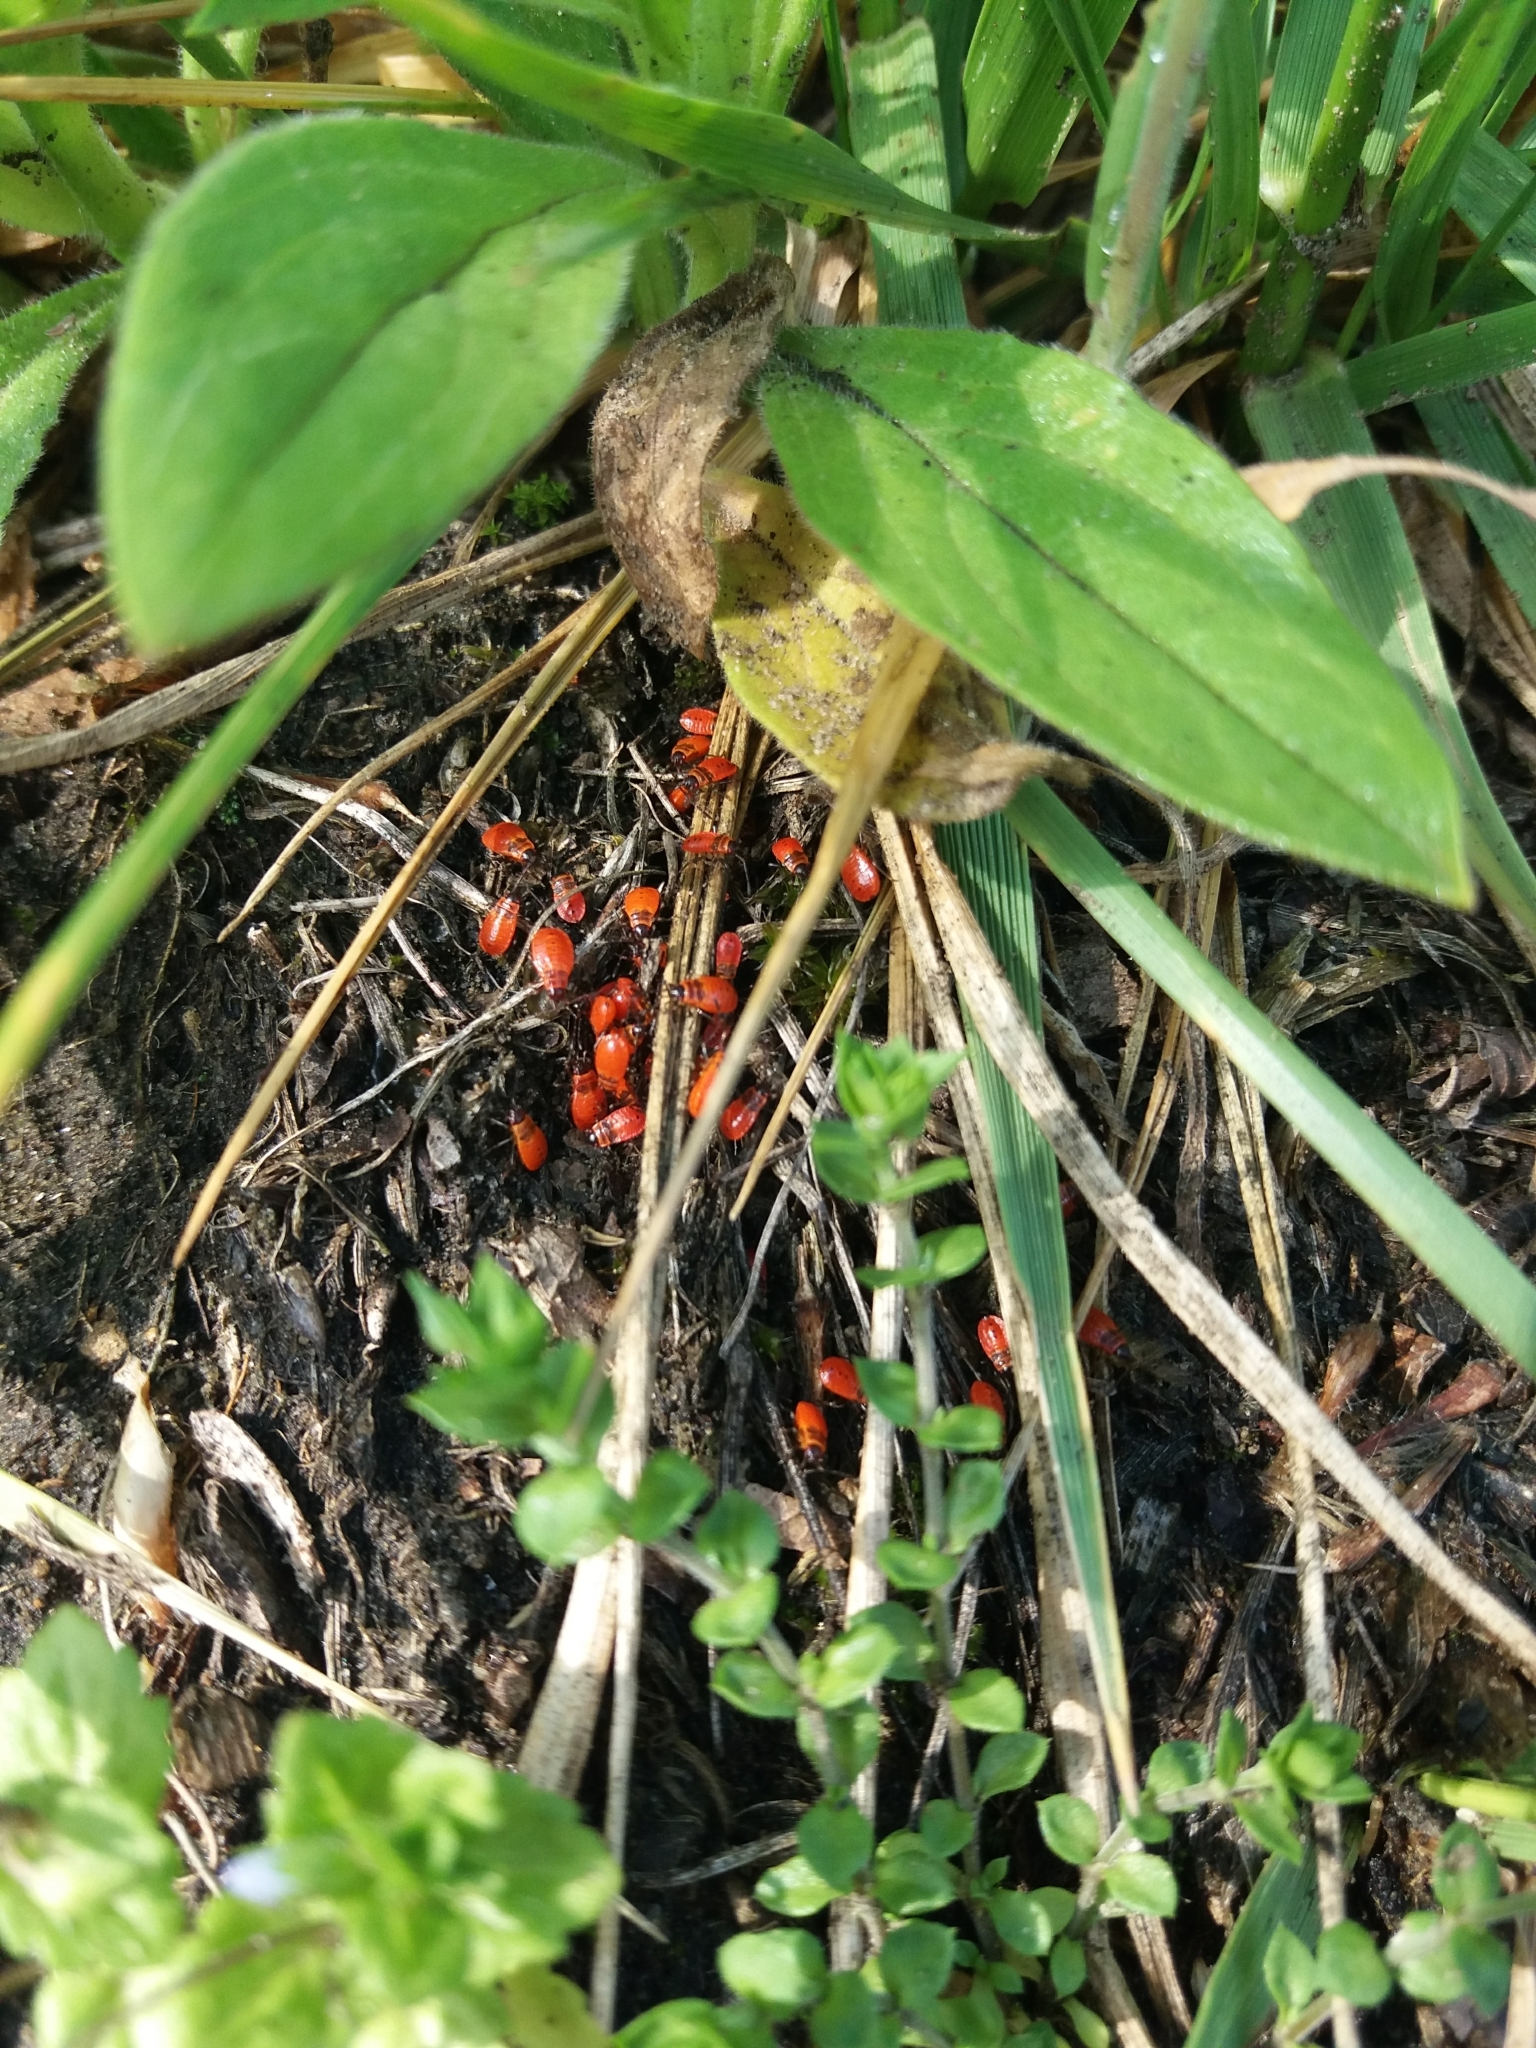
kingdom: Animalia
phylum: Arthropoda
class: Insecta
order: Hemiptera
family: Pyrrhocoridae
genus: Pyrrhocoris
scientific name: Pyrrhocoris apterus
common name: Firebug
